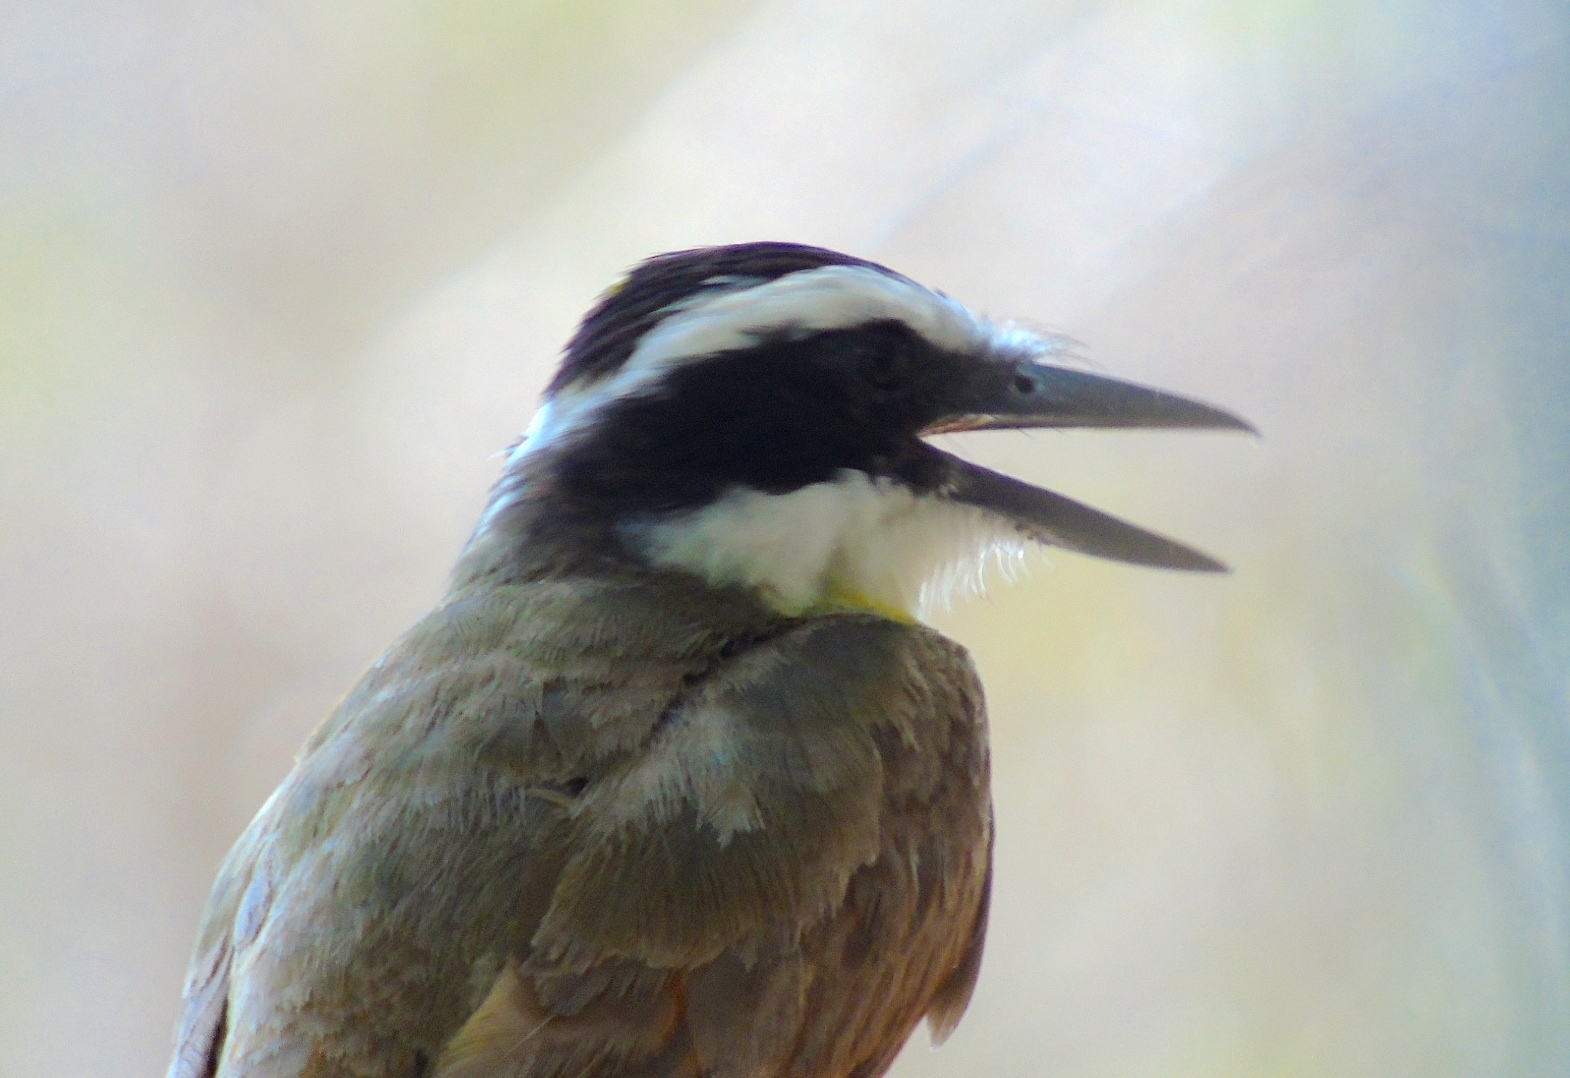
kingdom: Animalia
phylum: Chordata
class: Aves
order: Passeriformes
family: Tyrannidae
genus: Pitangus
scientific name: Pitangus sulphuratus
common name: Great kiskadee
